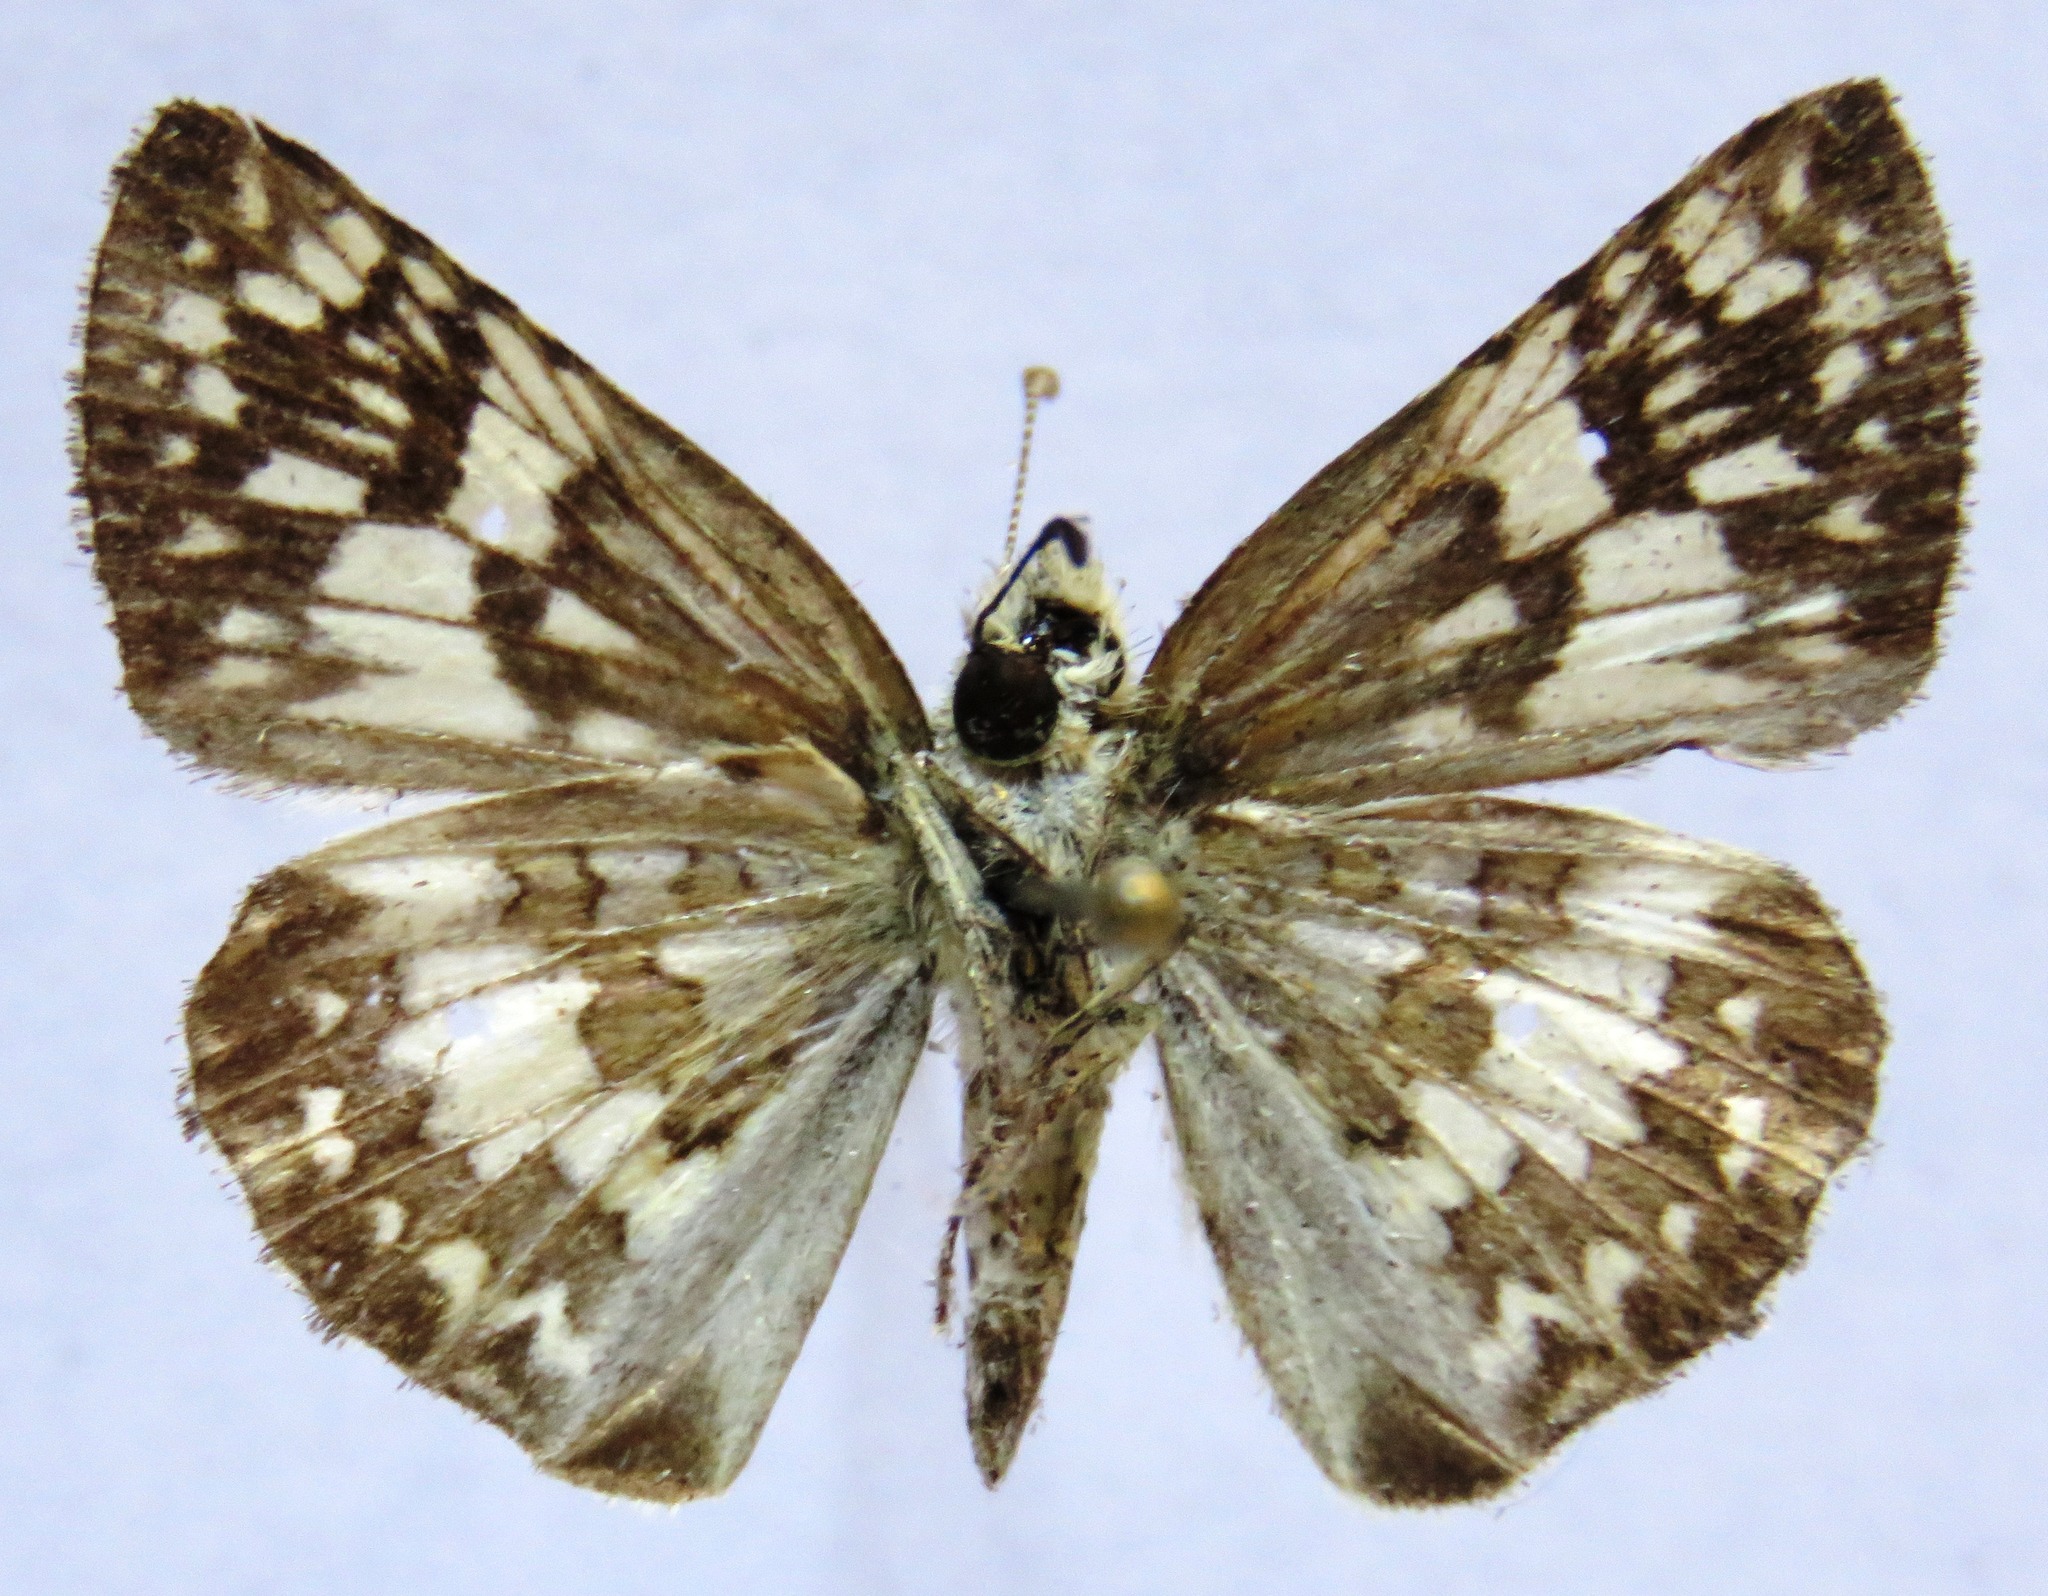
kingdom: Animalia
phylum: Arthropoda
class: Insecta
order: Lepidoptera
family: Hesperiidae
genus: Burnsius
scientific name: Burnsius adepta
